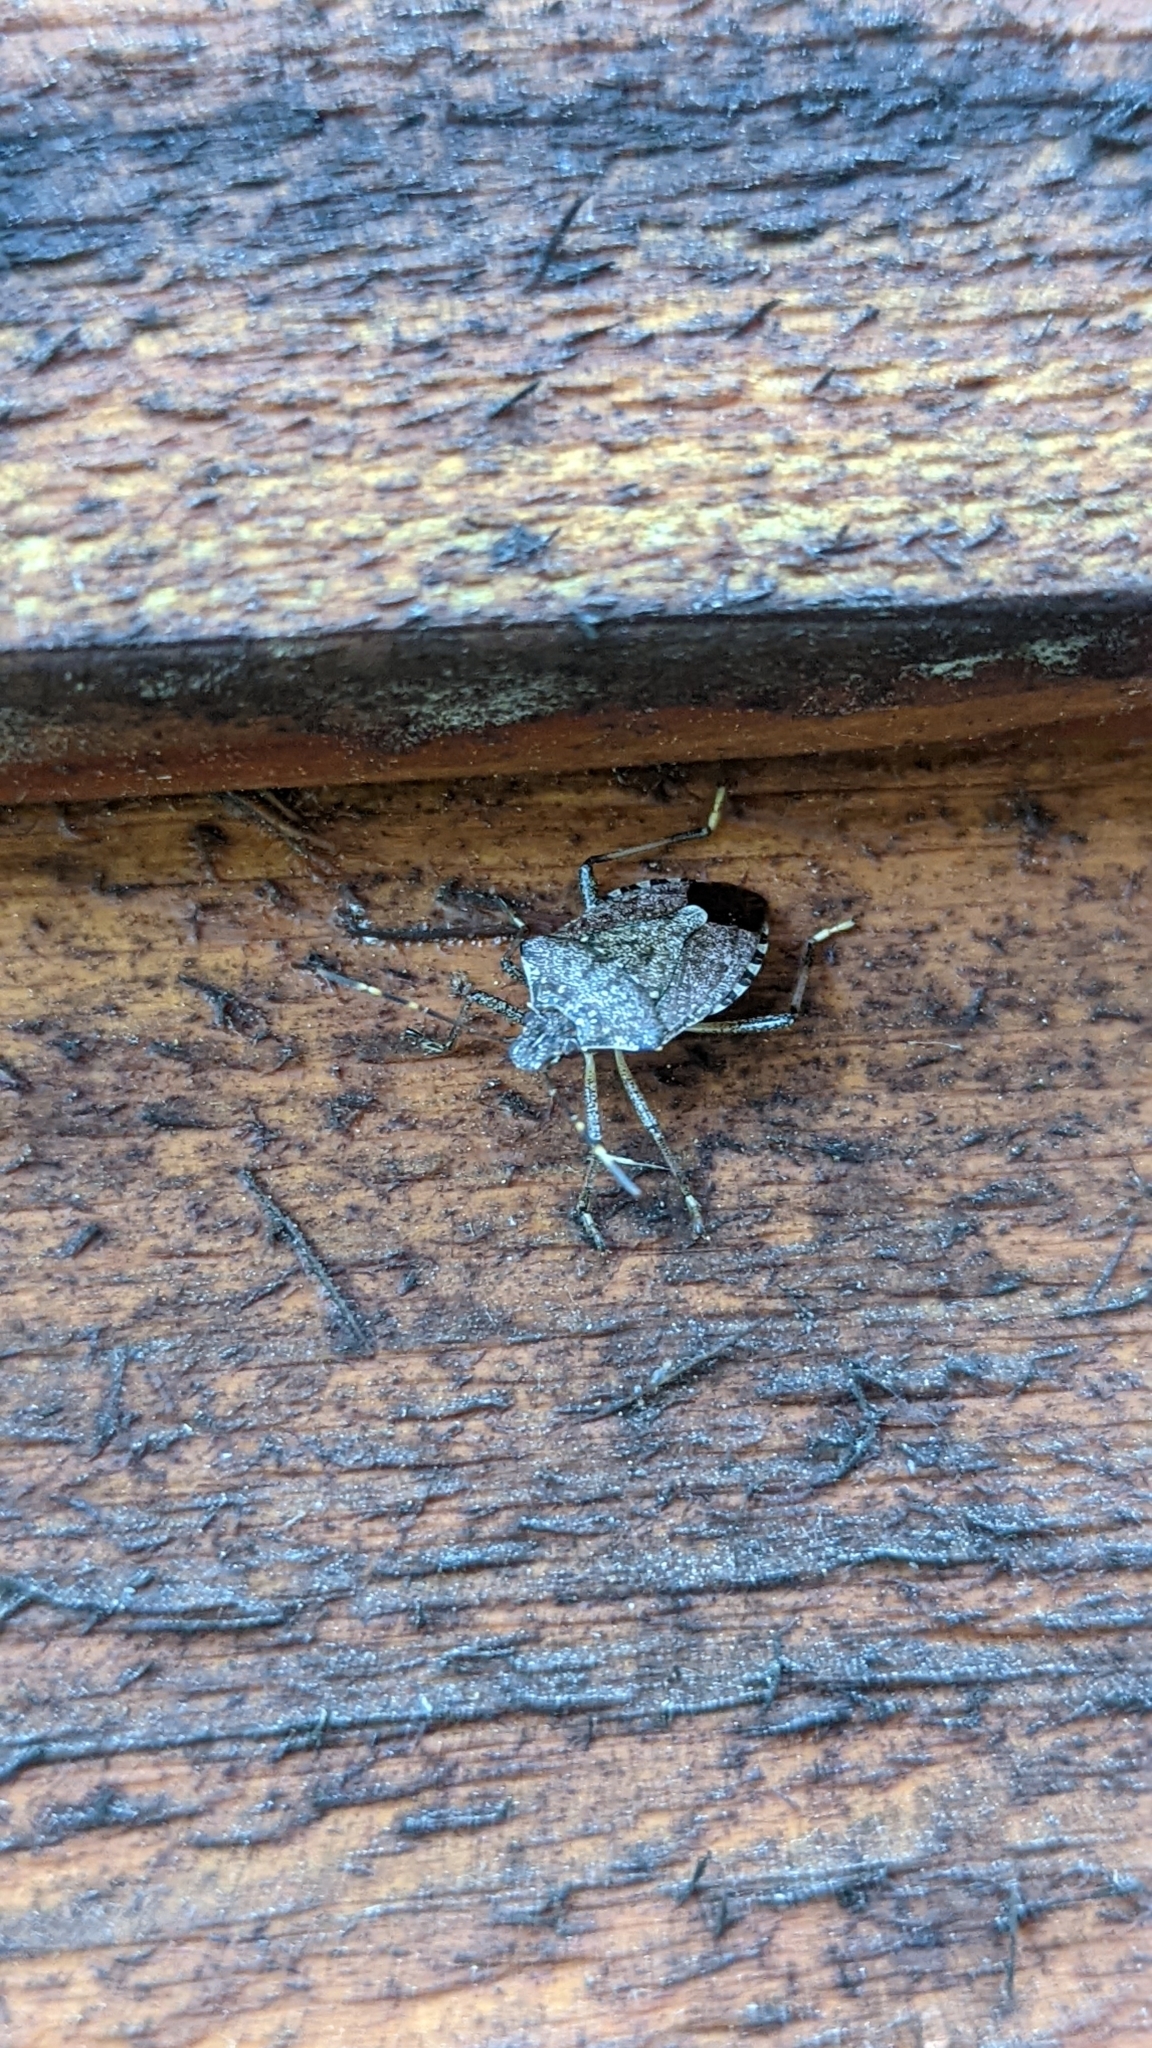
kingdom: Animalia
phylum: Arthropoda
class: Insecta
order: Hemiptera
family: Pentatomidae
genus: Halyomorpha
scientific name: Halyomorpha halys
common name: Brown marmorated stink bug
